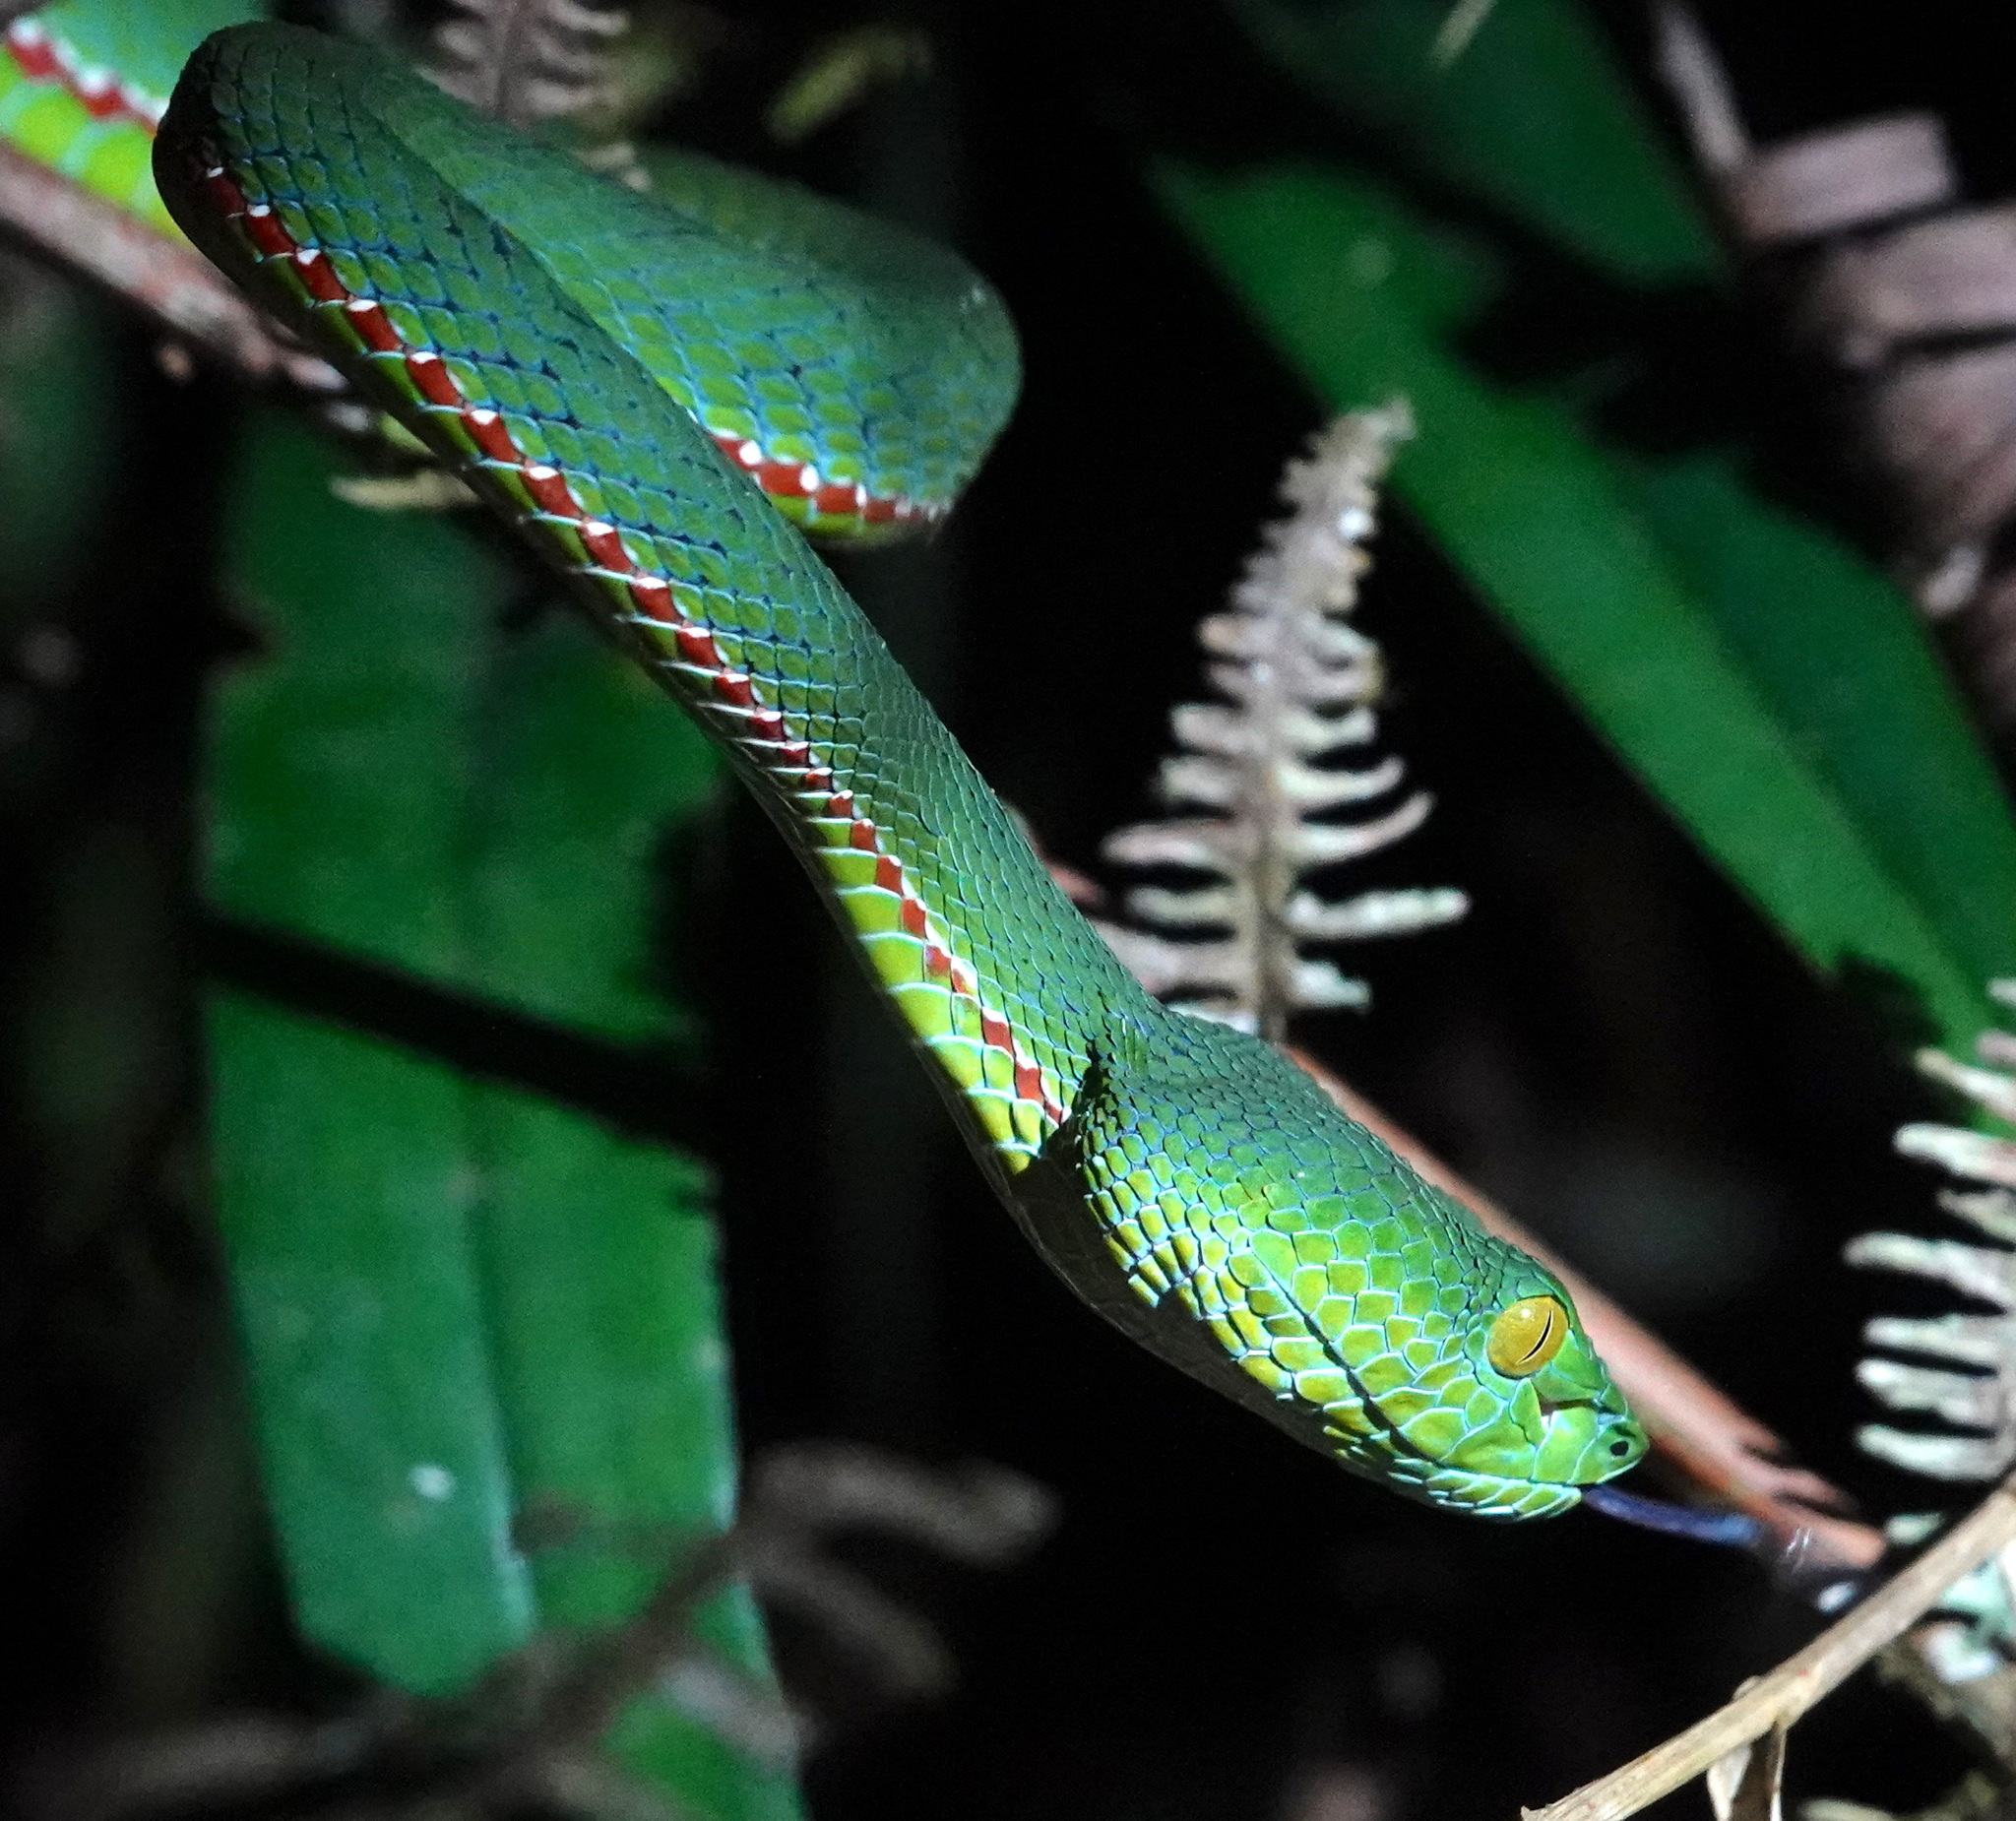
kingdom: Animalia
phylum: Chordata
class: Squamata
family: Viperidae
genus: Trimeresurus
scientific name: Trimeresurus sabahi
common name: Sabah bamboo pit viper
